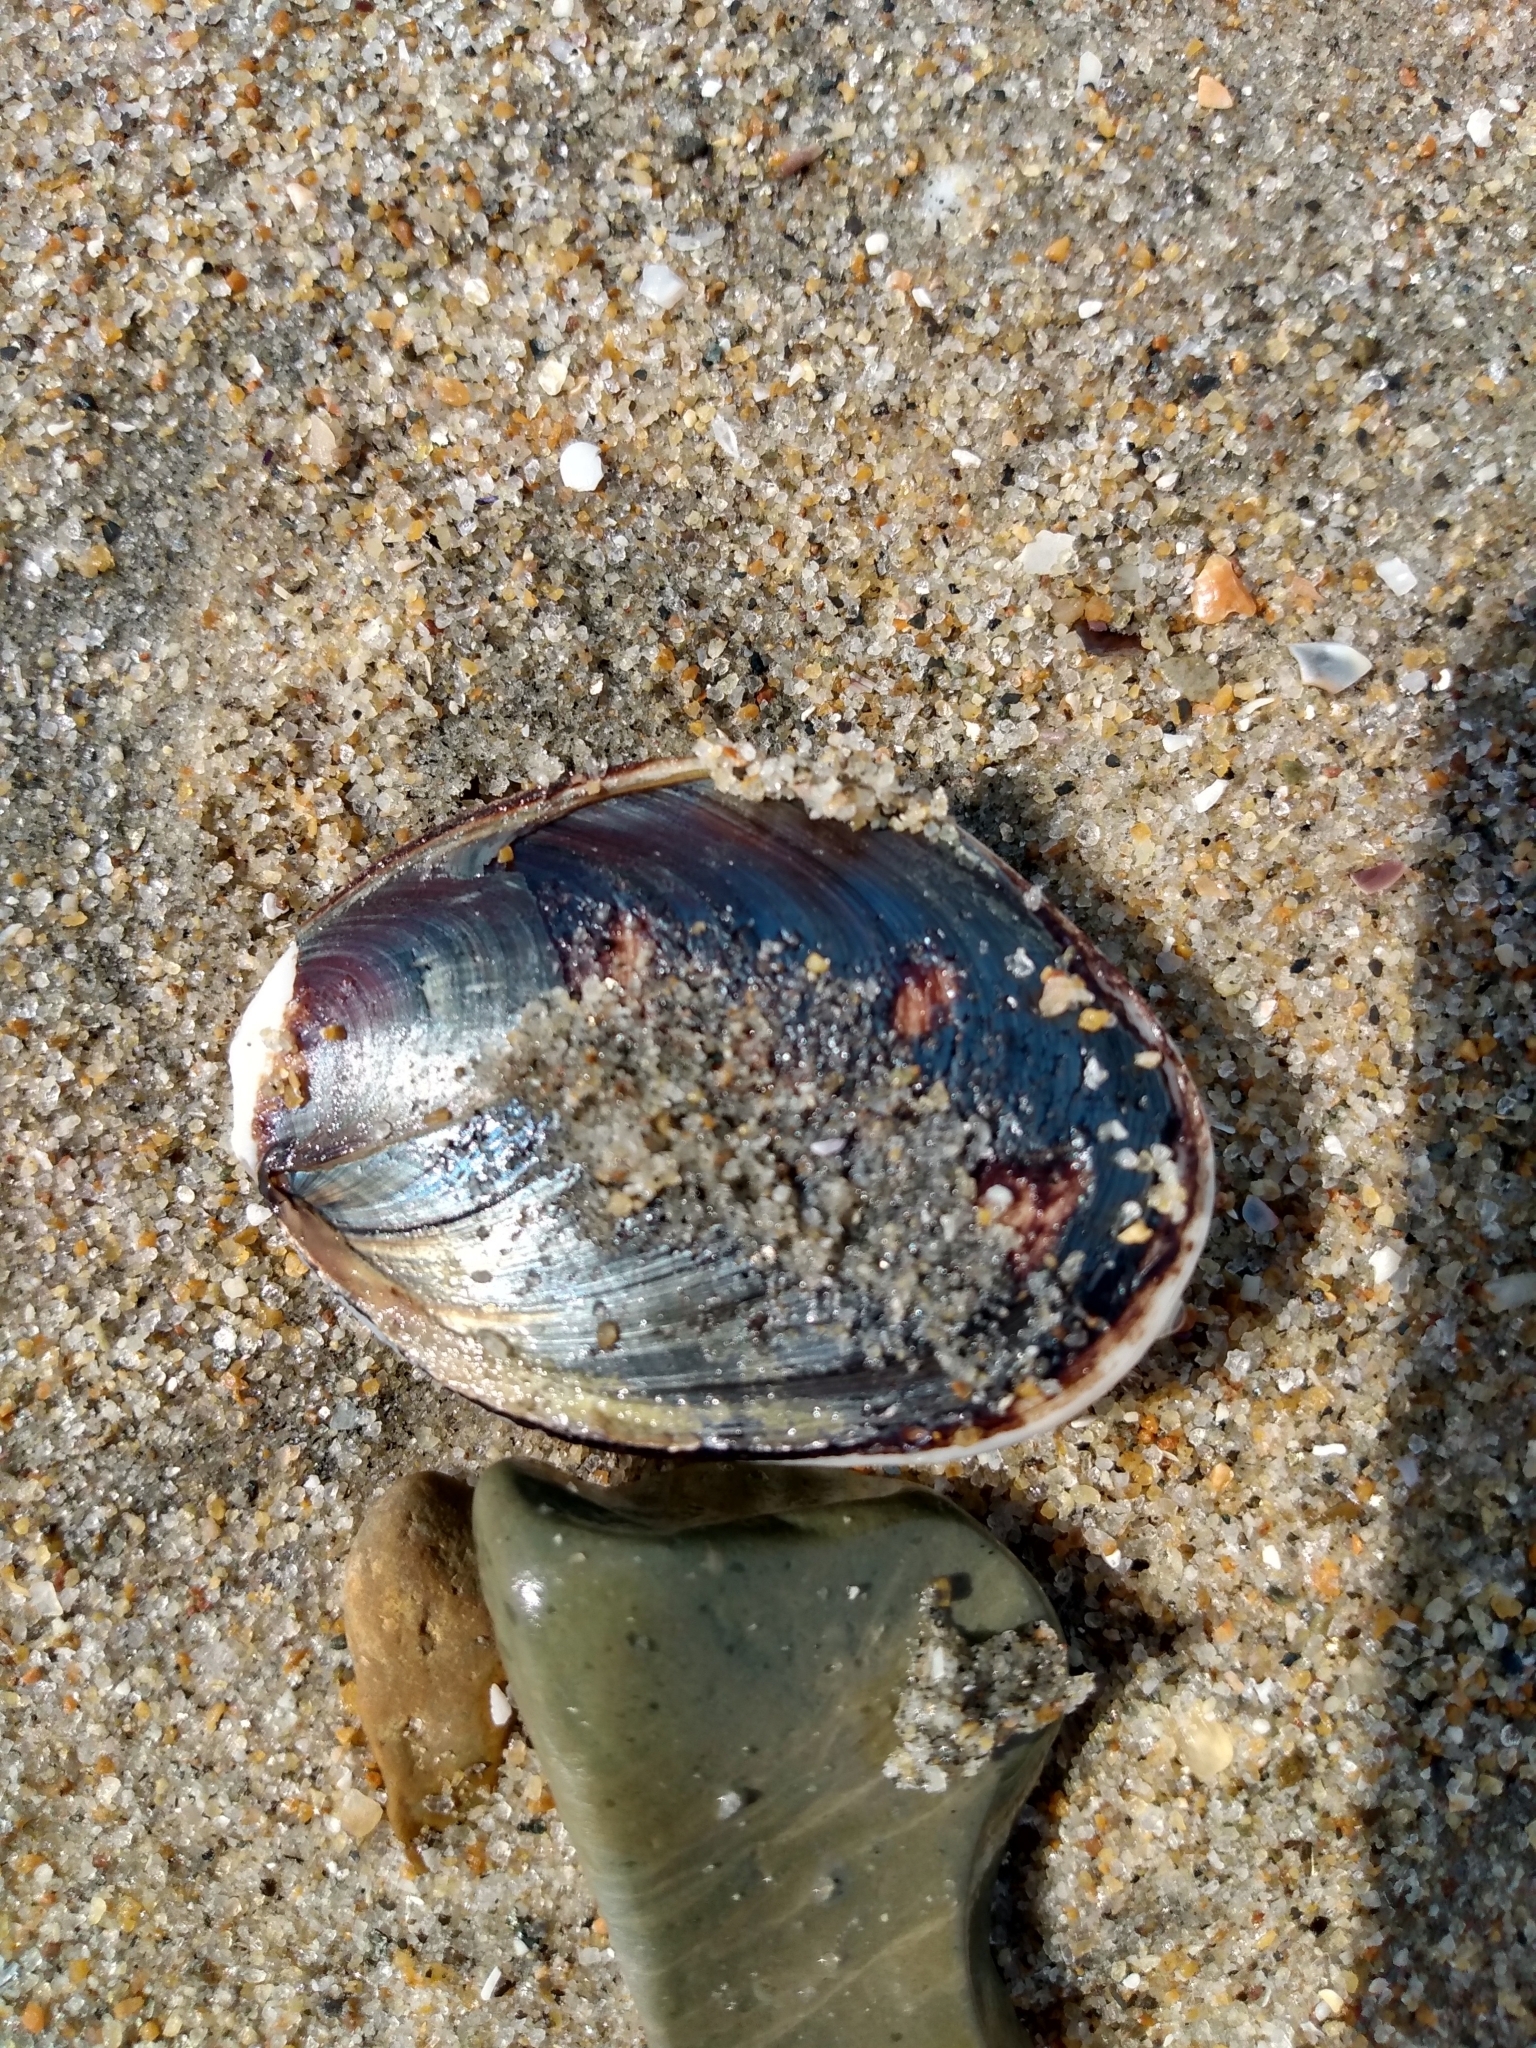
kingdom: Animalia
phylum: Mollusca
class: Gastropoda
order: Trochida
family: Turbinidae
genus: Megastraea
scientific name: Megastraea undosa
